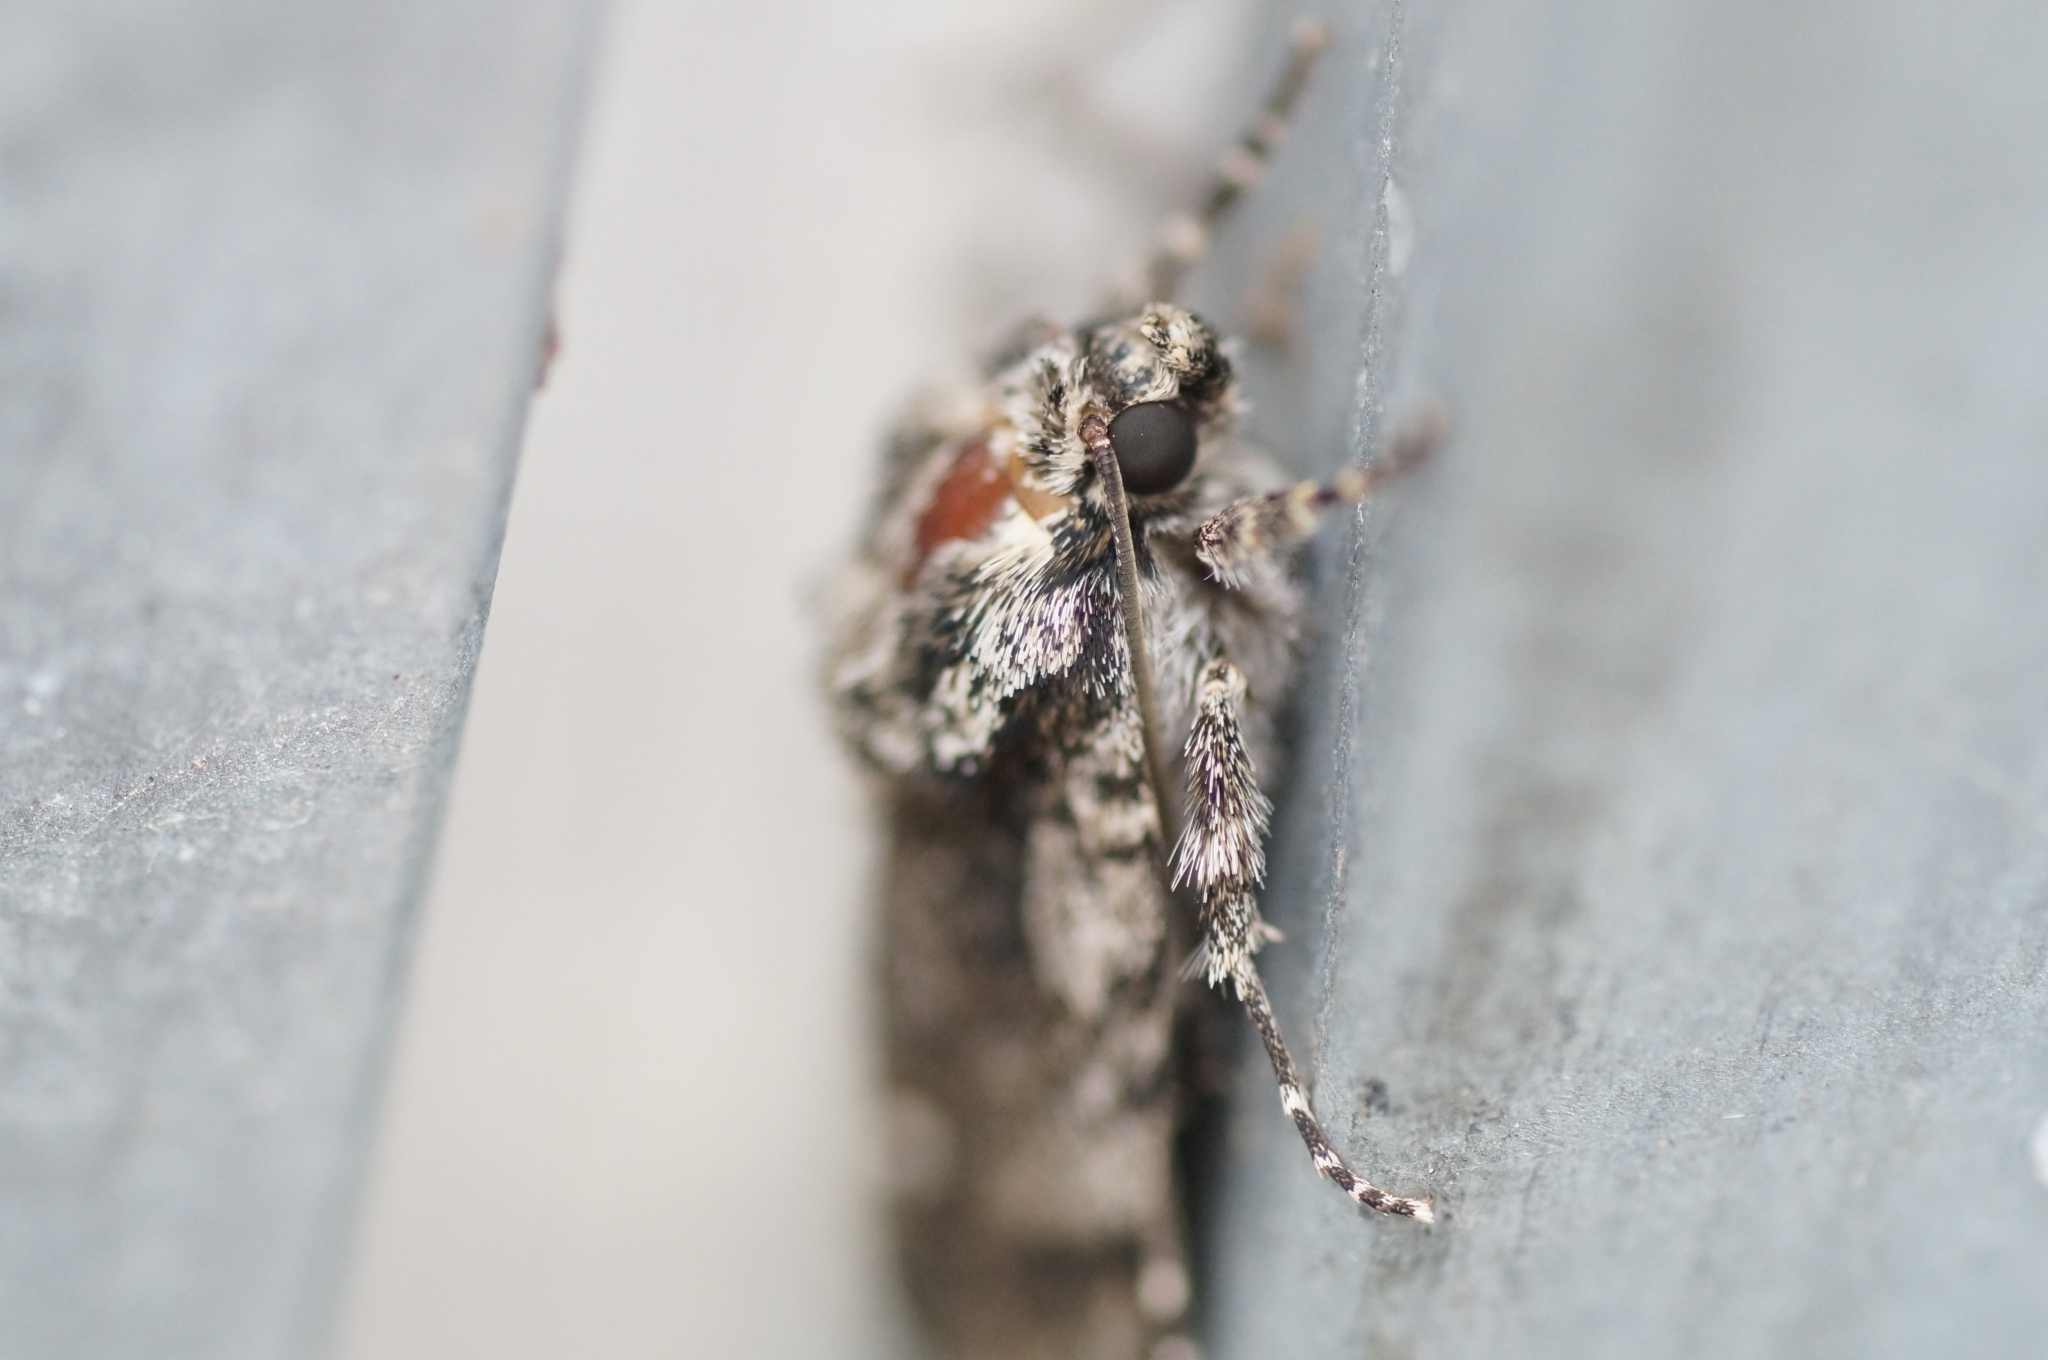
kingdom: Animalia
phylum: Arthropoda
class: Insecta
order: Lepidoptera
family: Noctuidae
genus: Acronicta
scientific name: Acronicta rumicis
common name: Knot grass
